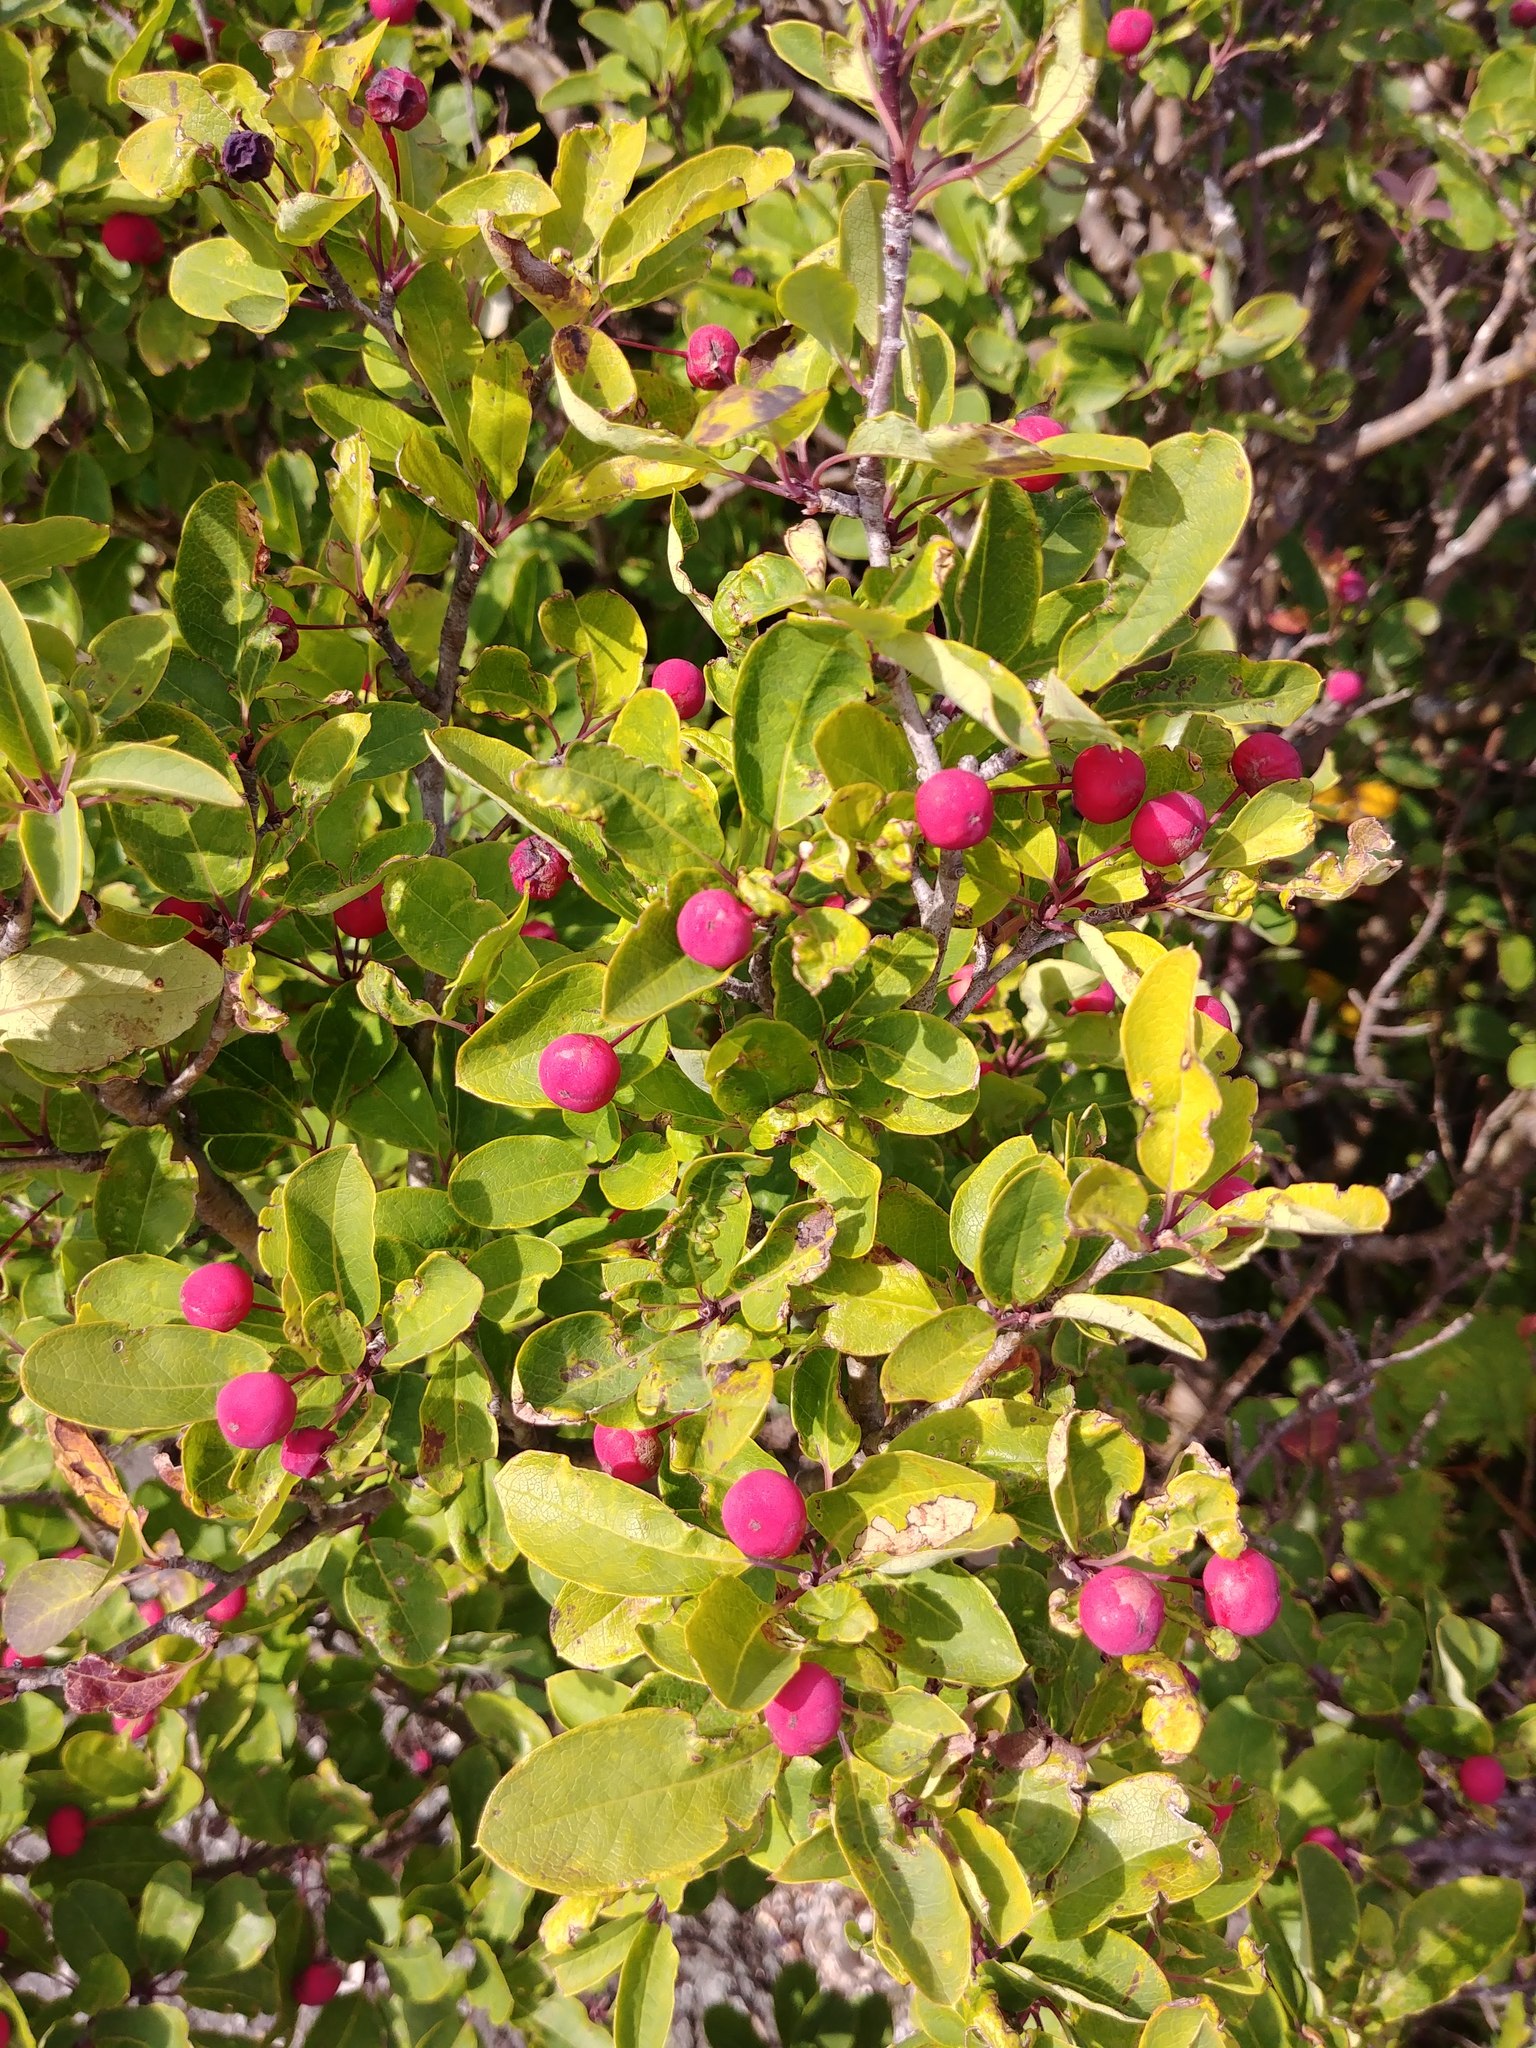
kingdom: Plantae
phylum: Tracheophyta
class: Magnoliopsida
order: Aquifoliales
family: Aquifoliaceae
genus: Ilex
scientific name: Ilex mucronata
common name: Catberry
